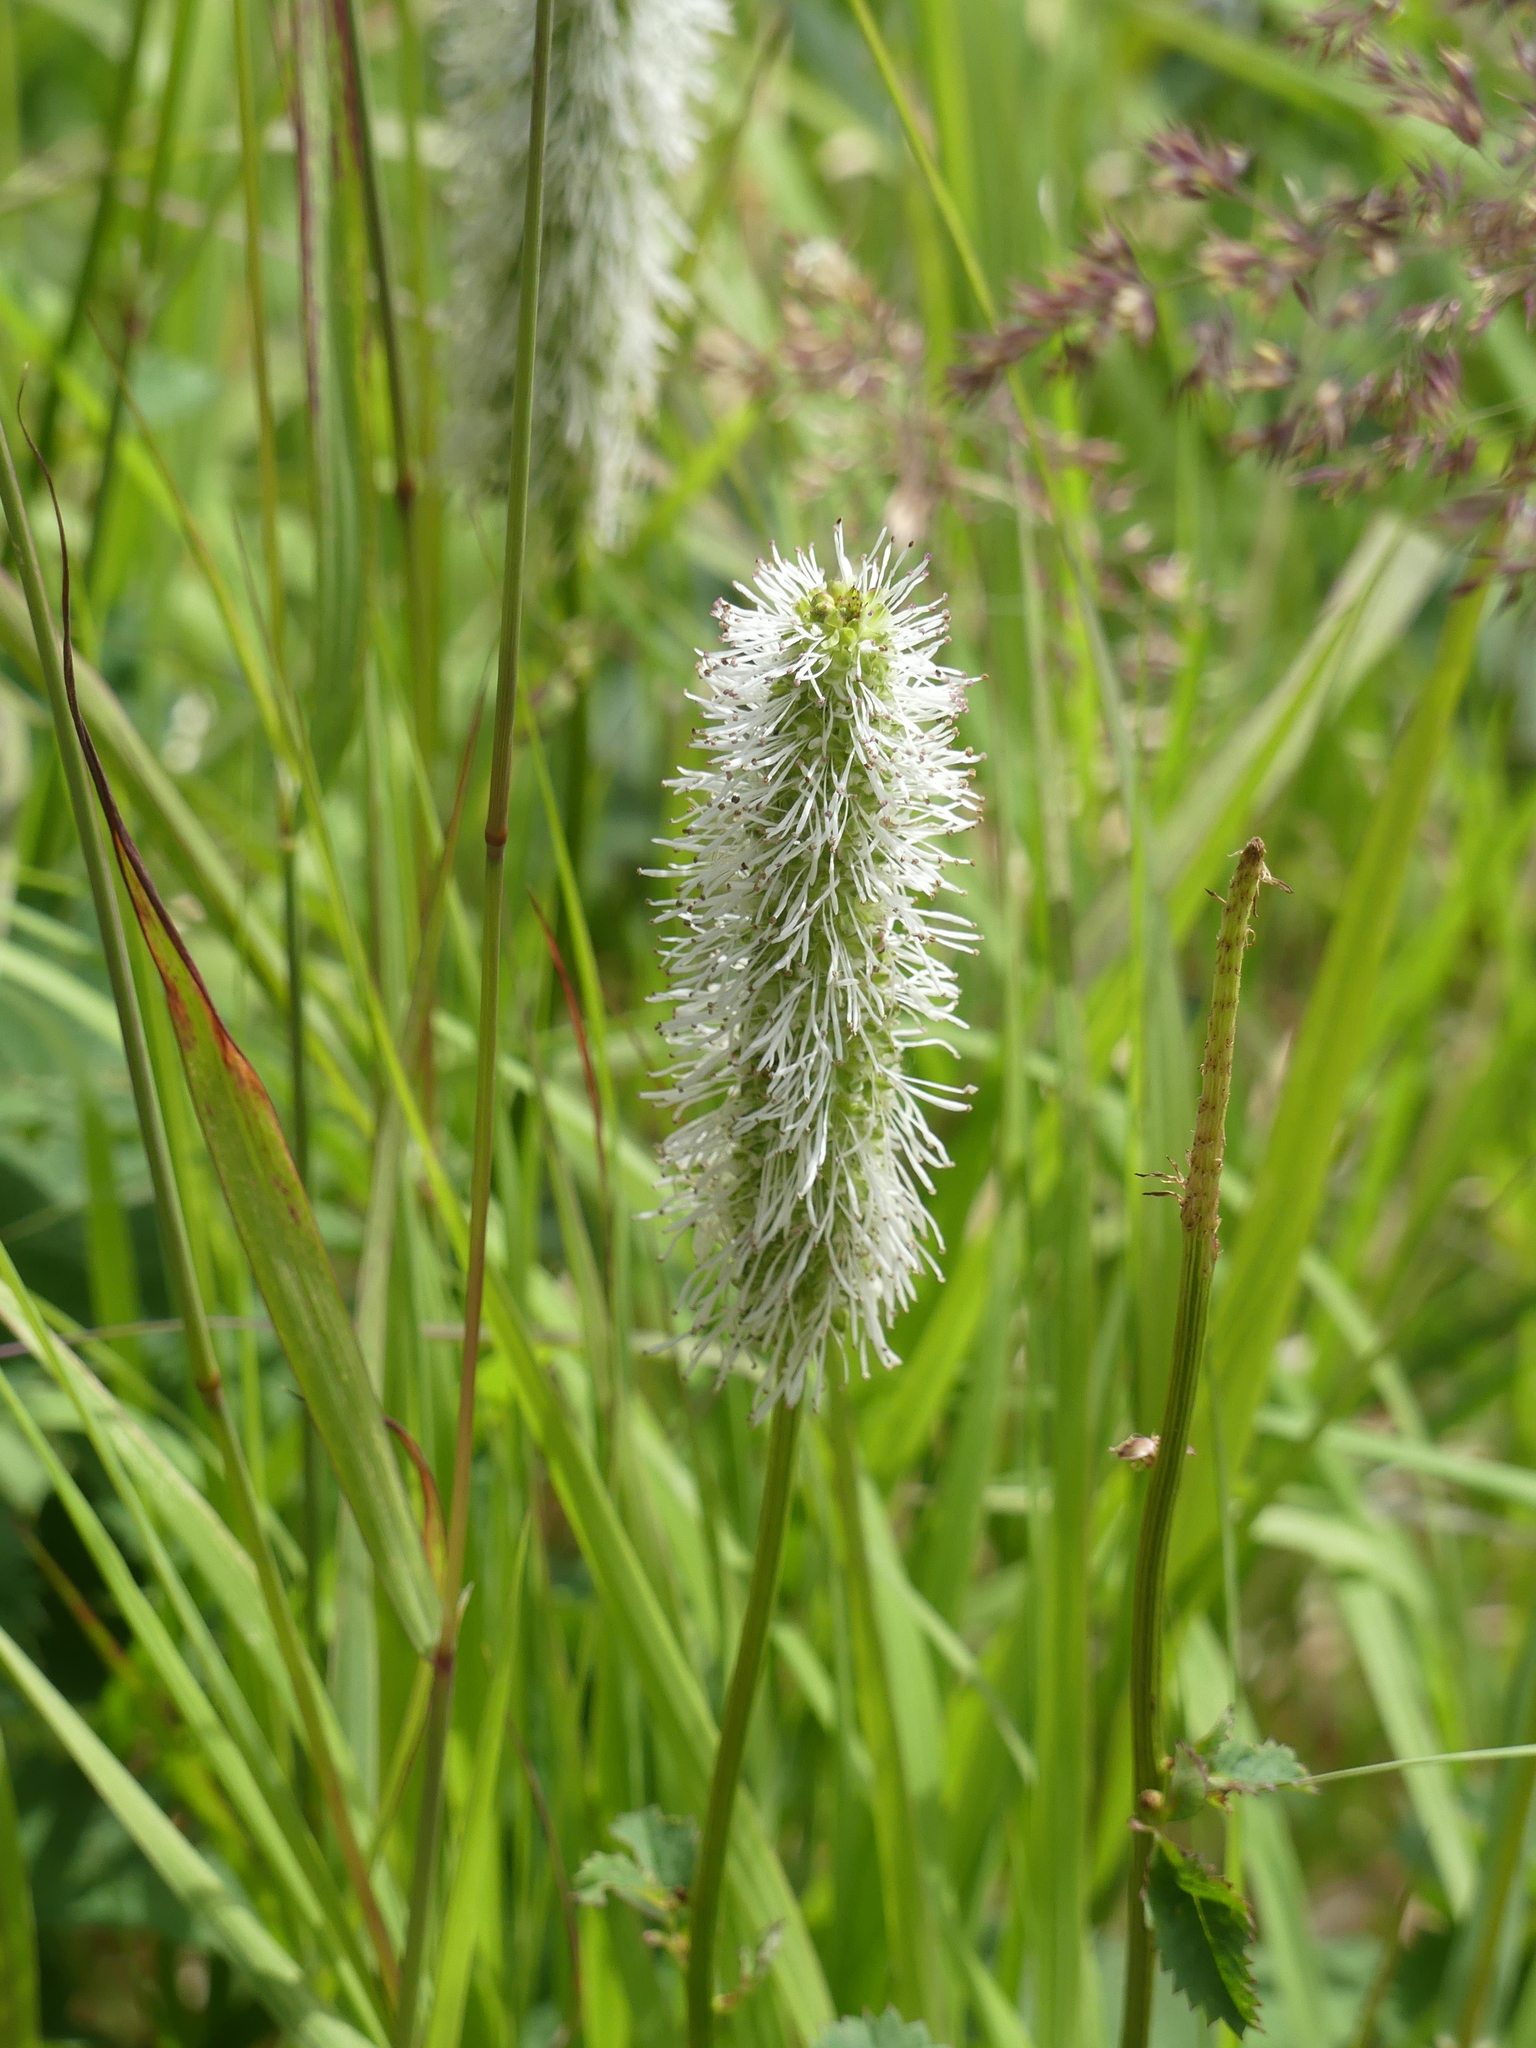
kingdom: Plantae
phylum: Tracheophyta
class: Magnoliopsida
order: Rosales
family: Rosaceae
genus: Sanguisorba
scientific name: Sanguisorba stipulata
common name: Sitka burnet
